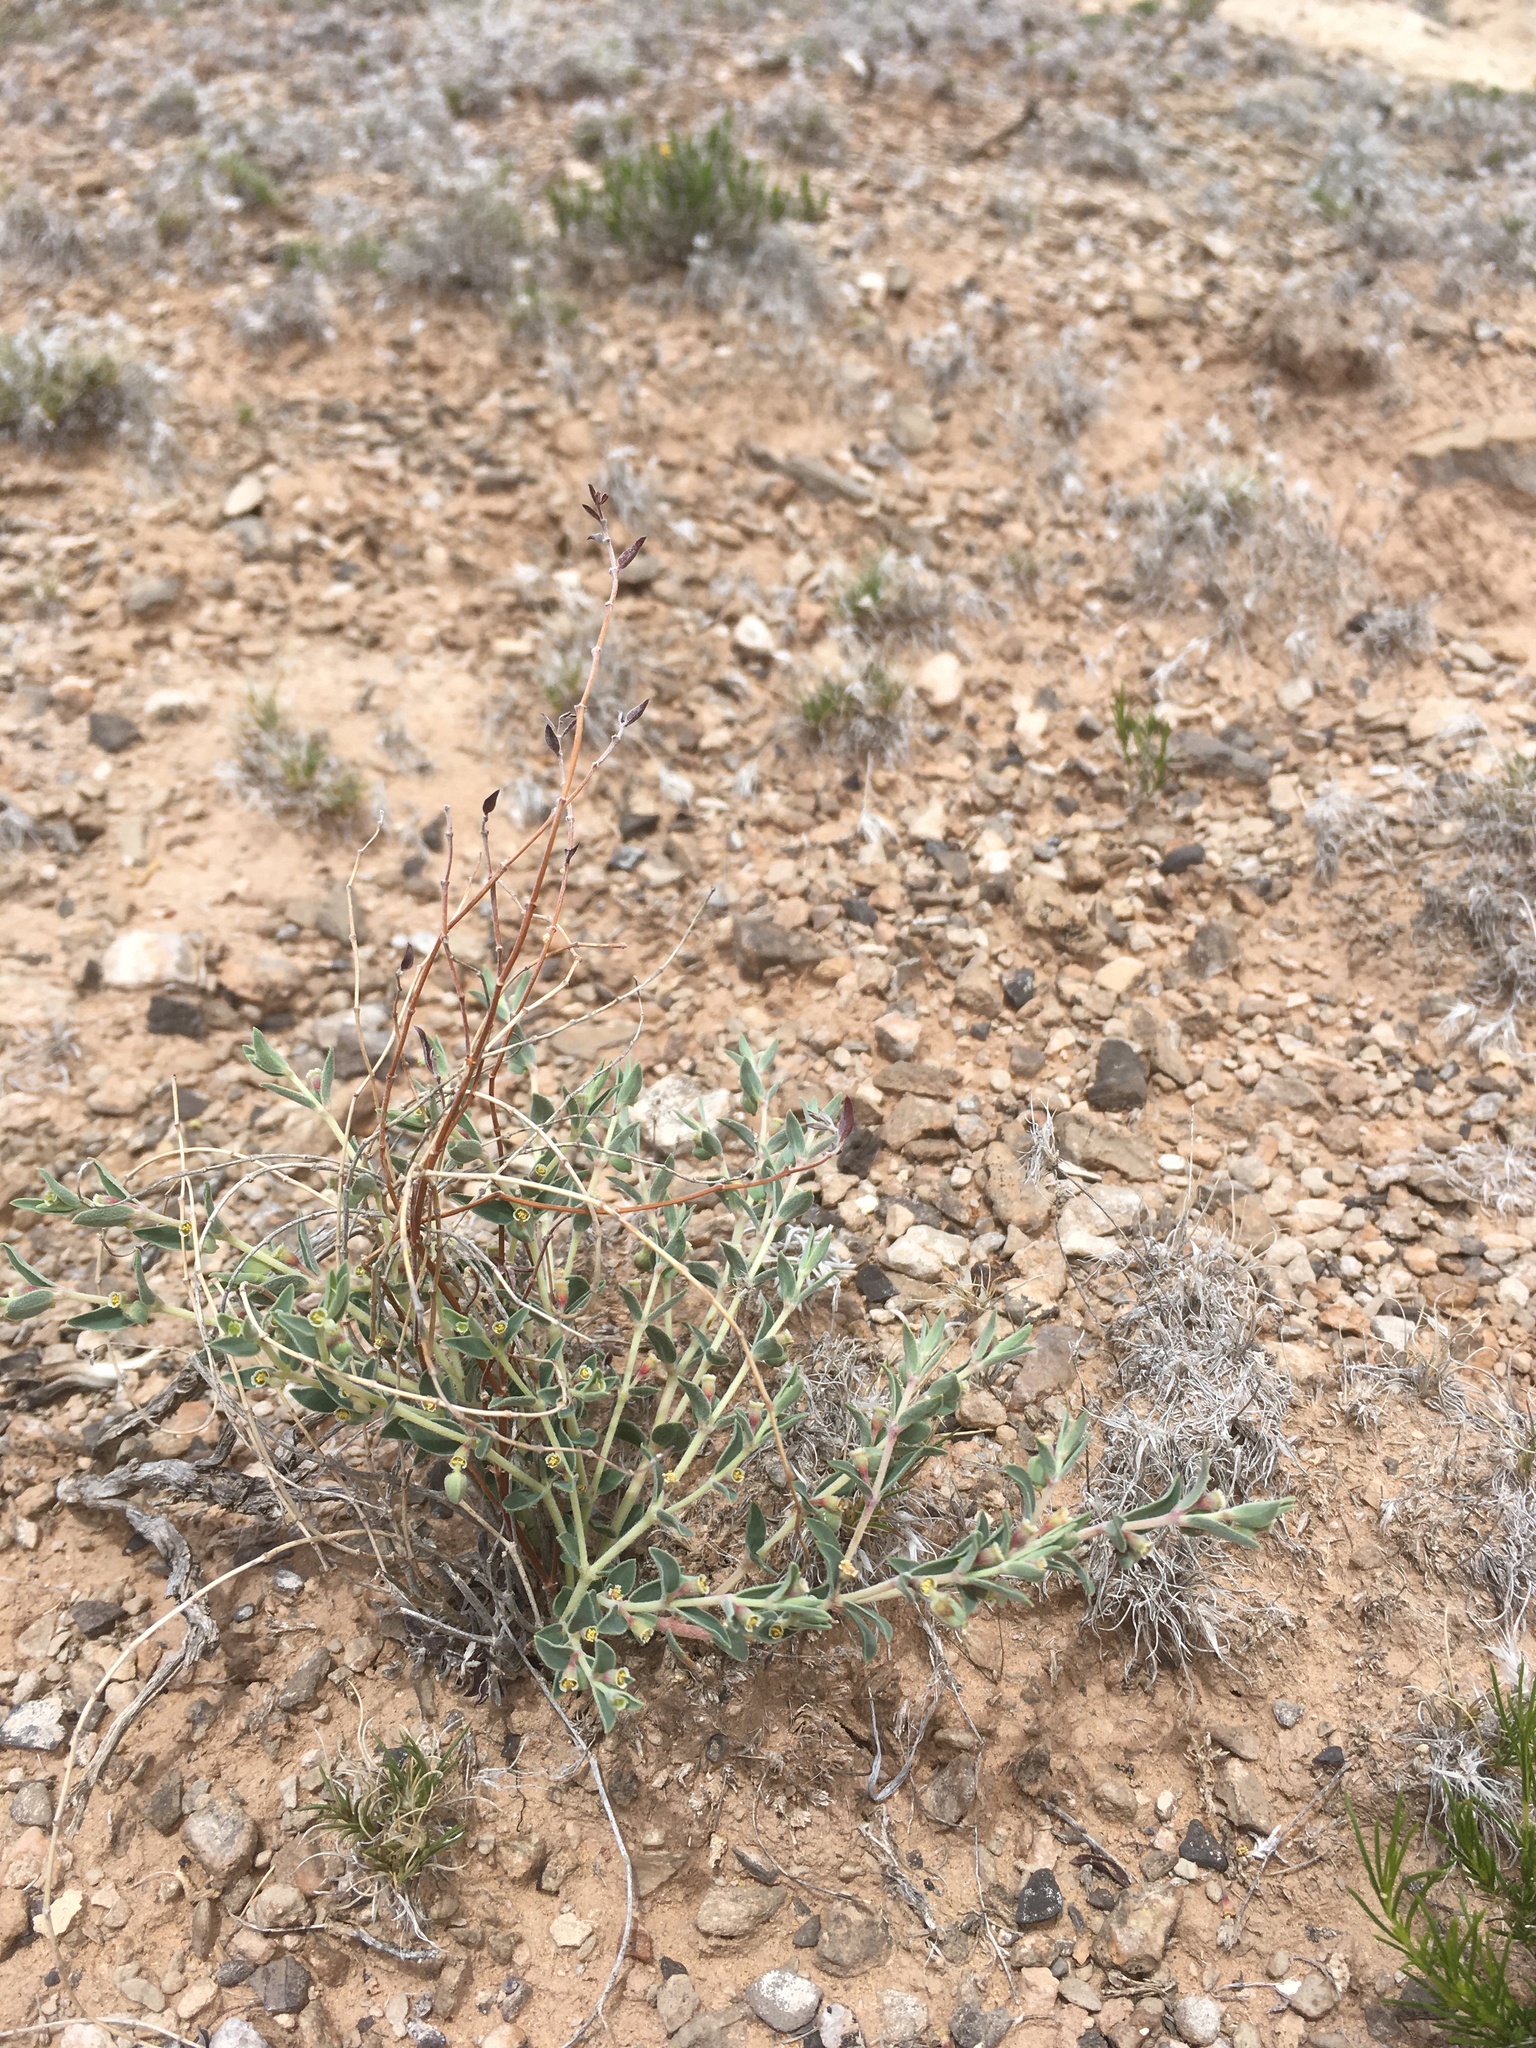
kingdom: Plantae
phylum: Tracheophyta
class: Magnoliopsida
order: Malpighiales
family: Euphorbiaceae
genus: Euphorbia
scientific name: Euphorbia acuta
